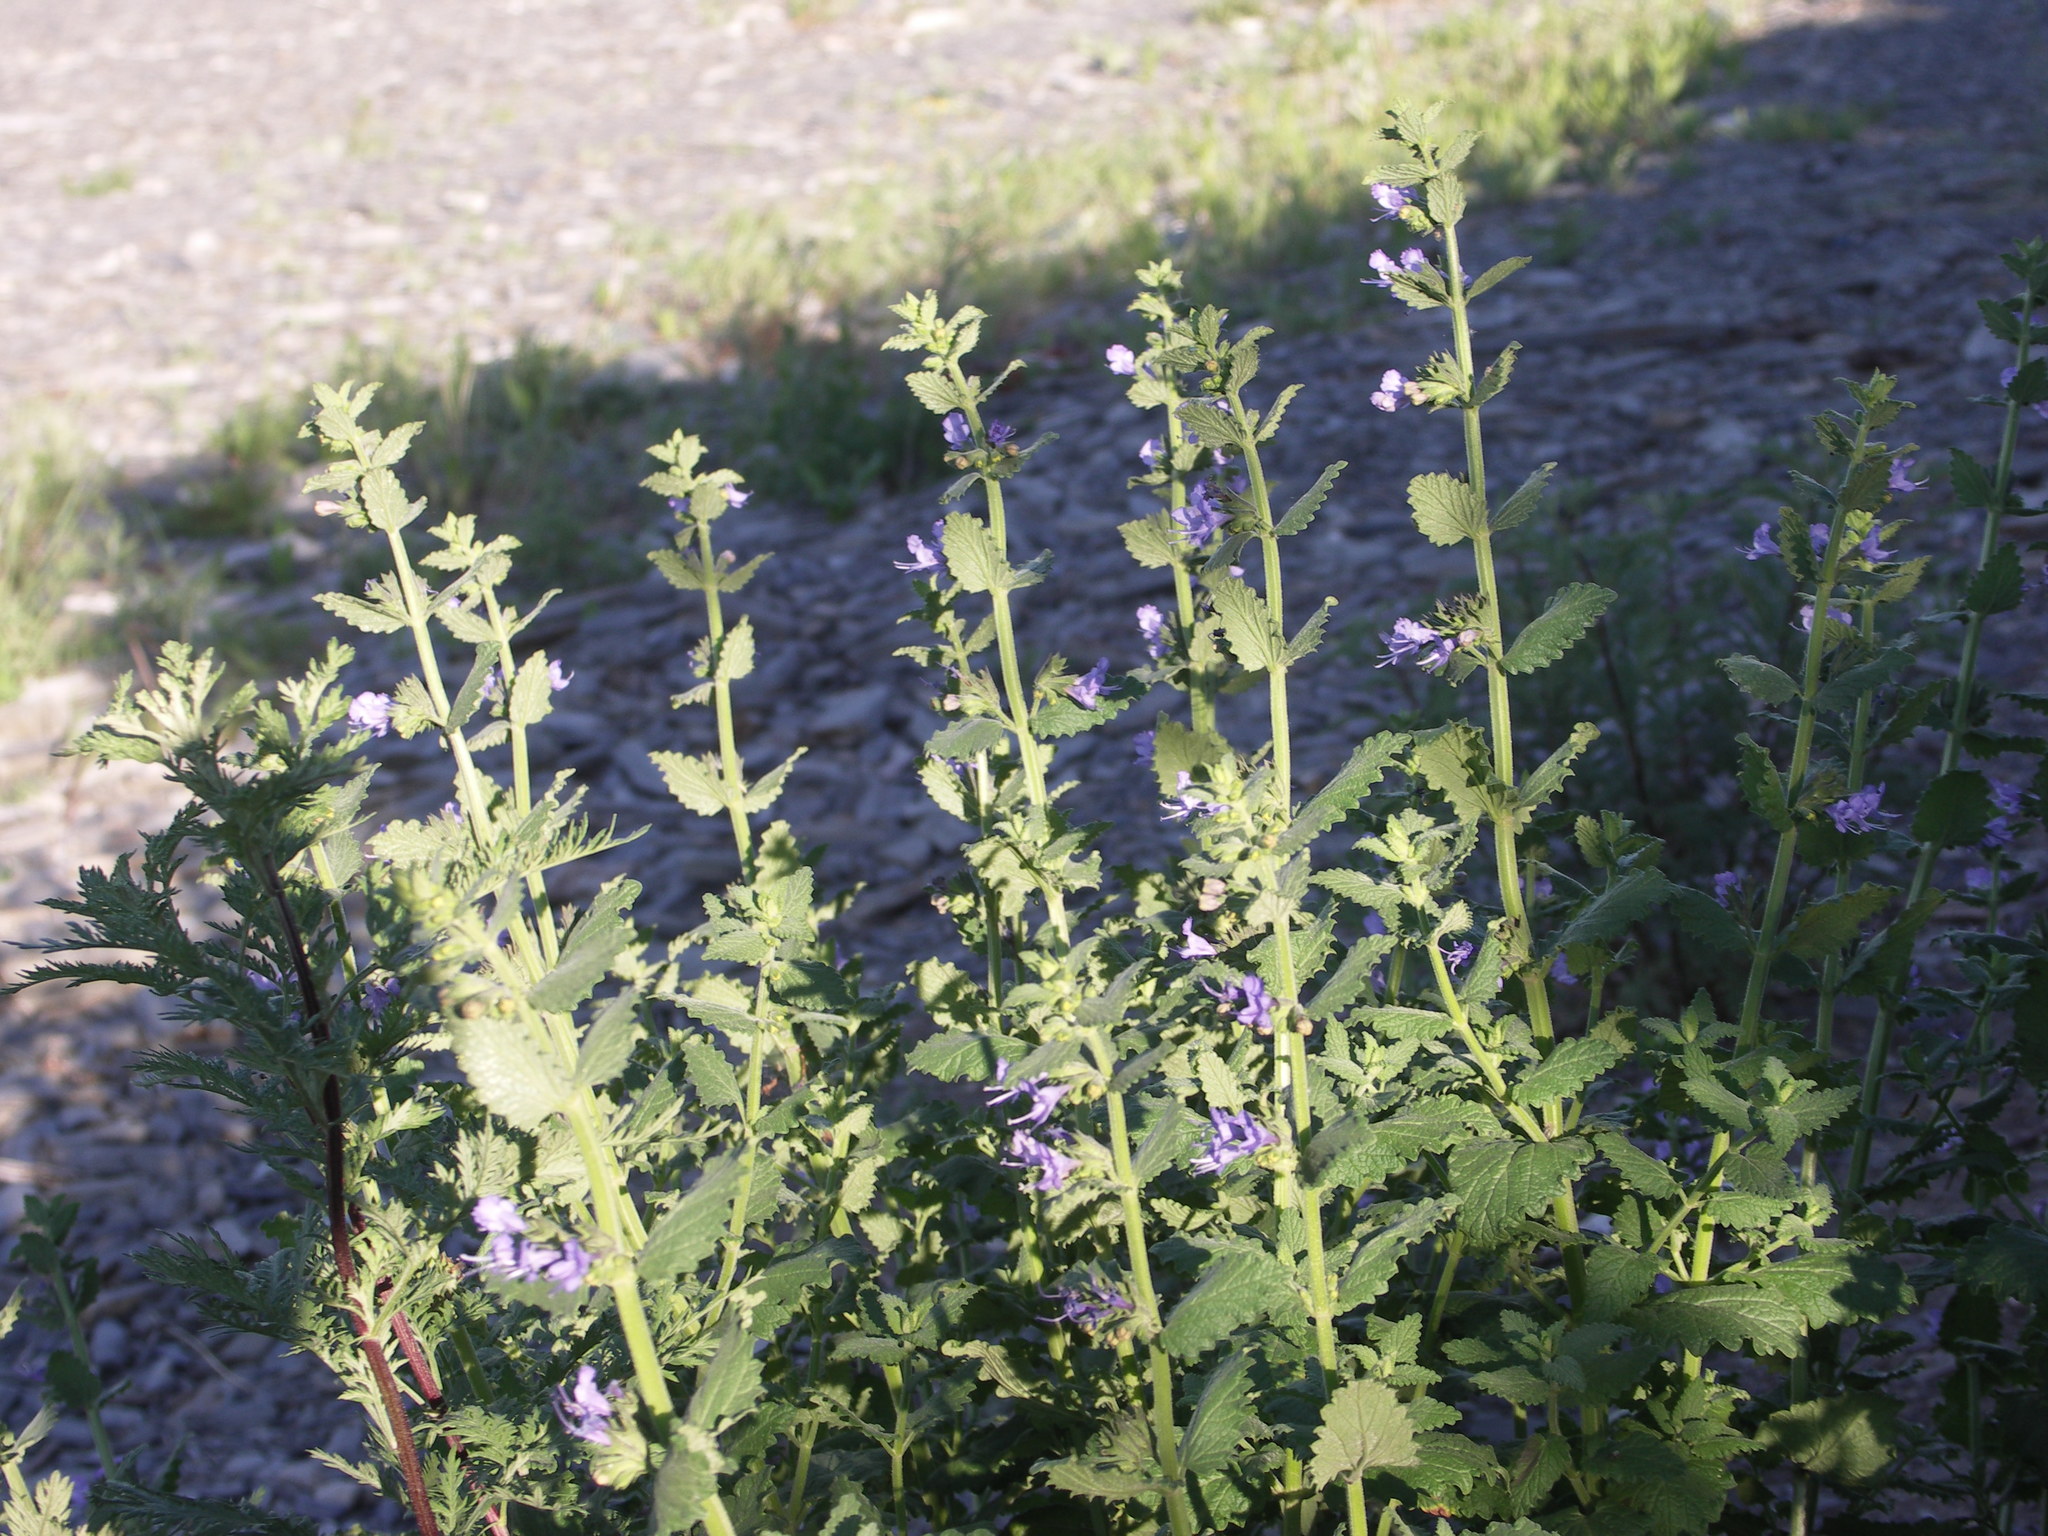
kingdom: Plantae
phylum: Tracheophyta
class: Magnoliopsida
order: Lamiales
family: Lamiaceae
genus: Nepeta
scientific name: Nepeta lophanthus
